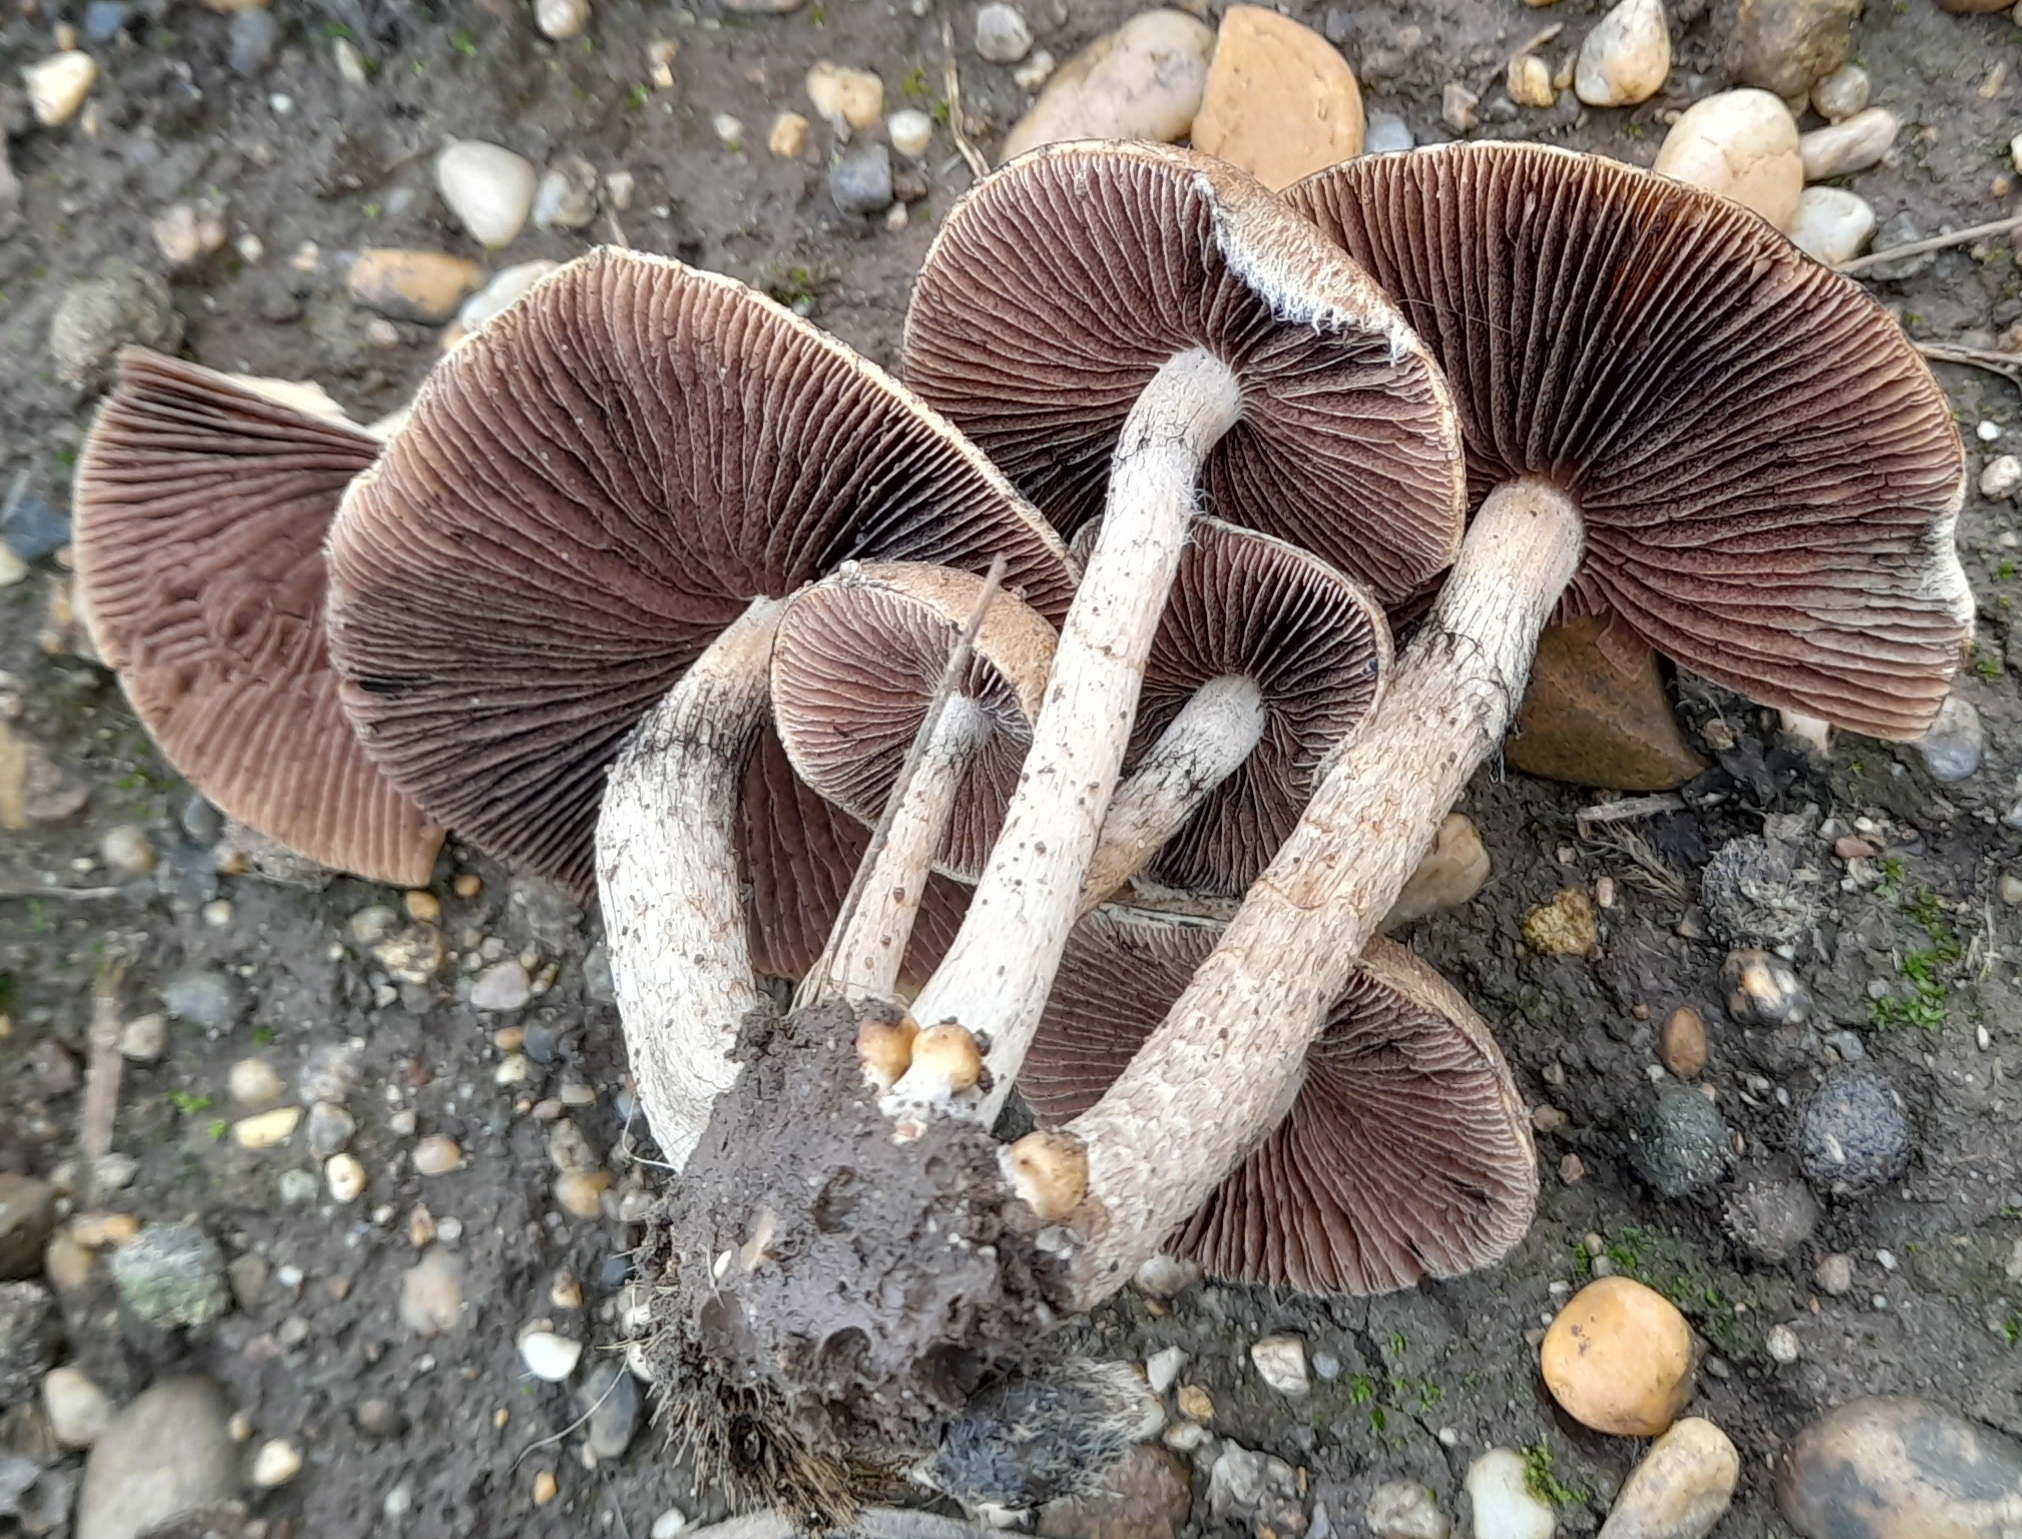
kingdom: Fungi
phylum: Basidiomycota
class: Agaricomycetes
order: Agaricales
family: Psathyrellaceae
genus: Lacrymaria
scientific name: Lacrymaria lacrymabunda
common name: Weeping widow
